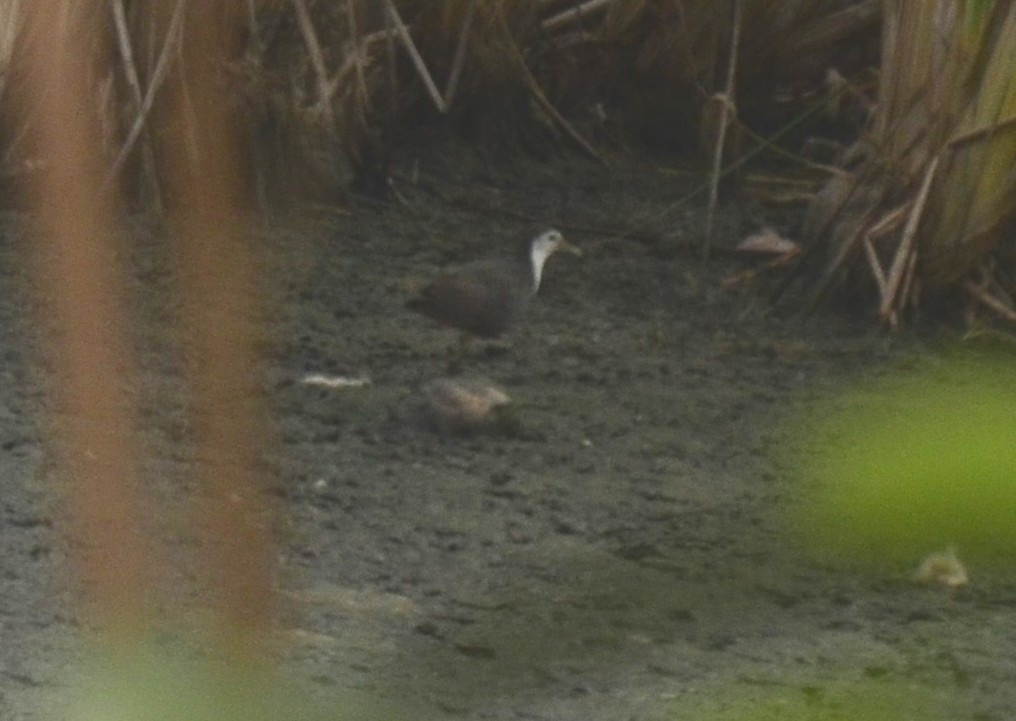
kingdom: Animalia
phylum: Chordata
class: Aves
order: Gruiformes
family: Rallidae
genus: Amaurornis
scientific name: Amaurornis phoenicurus
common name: White-breasted waterhen
